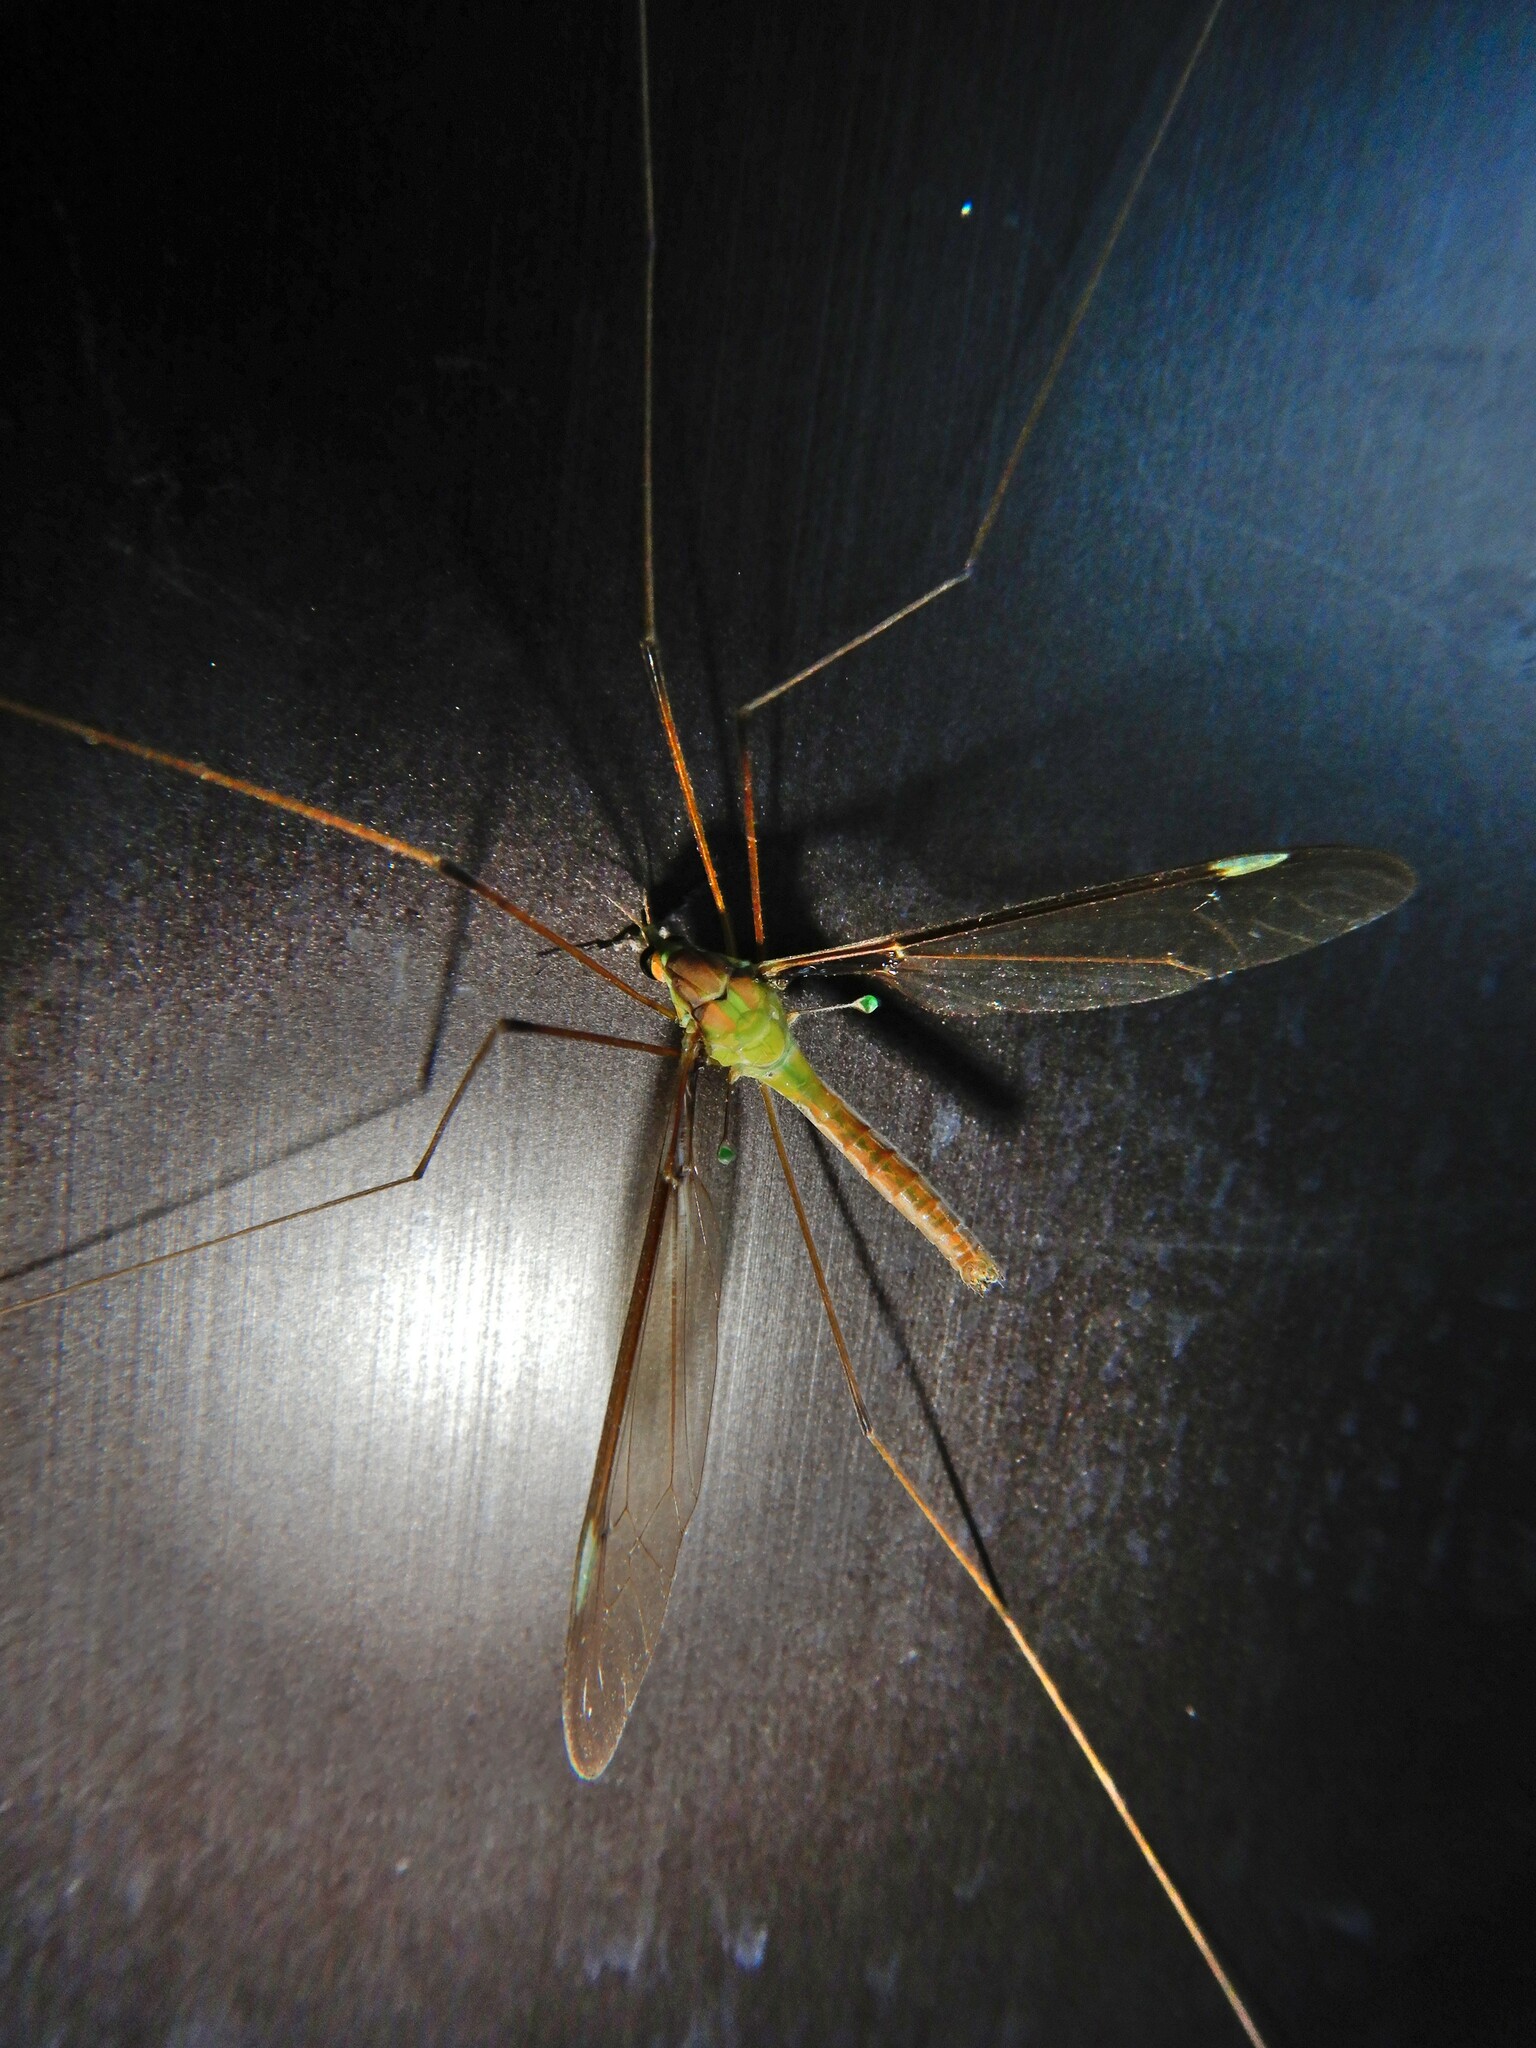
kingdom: Animalia
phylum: Arthropoda
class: Insecta
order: Diptera
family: Tipulidae
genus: Leptotarsus
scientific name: Leptotarsus albistigma
